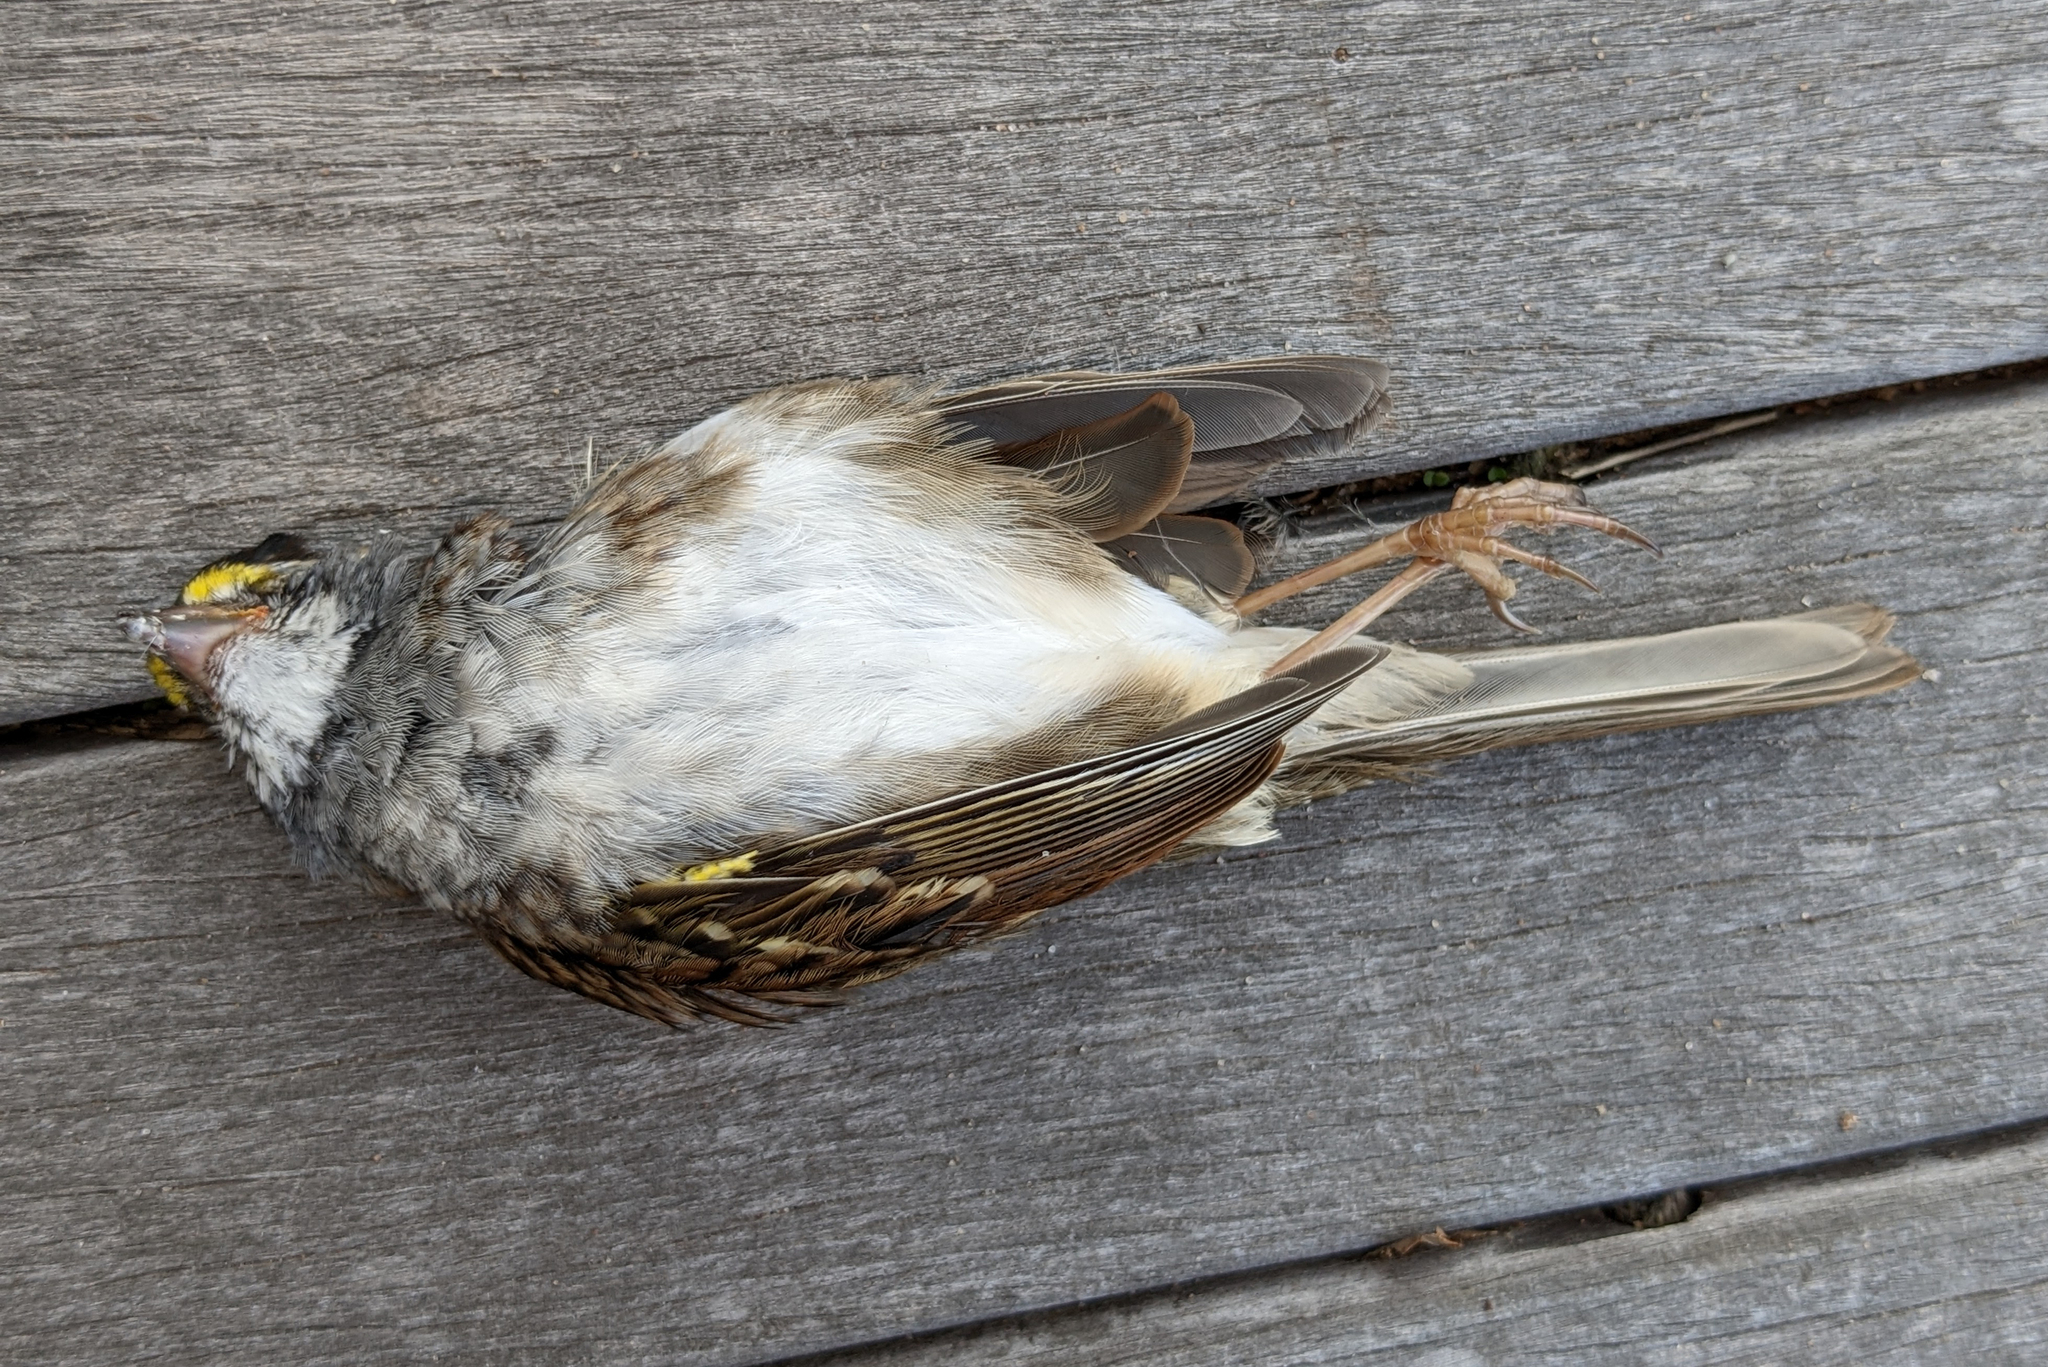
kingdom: Animalia
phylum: Chordata
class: Aves
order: Passeriformes
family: Passerellidae
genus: Zonotrichia
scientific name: Zonotrichia albicollis
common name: White-throated sparrow
